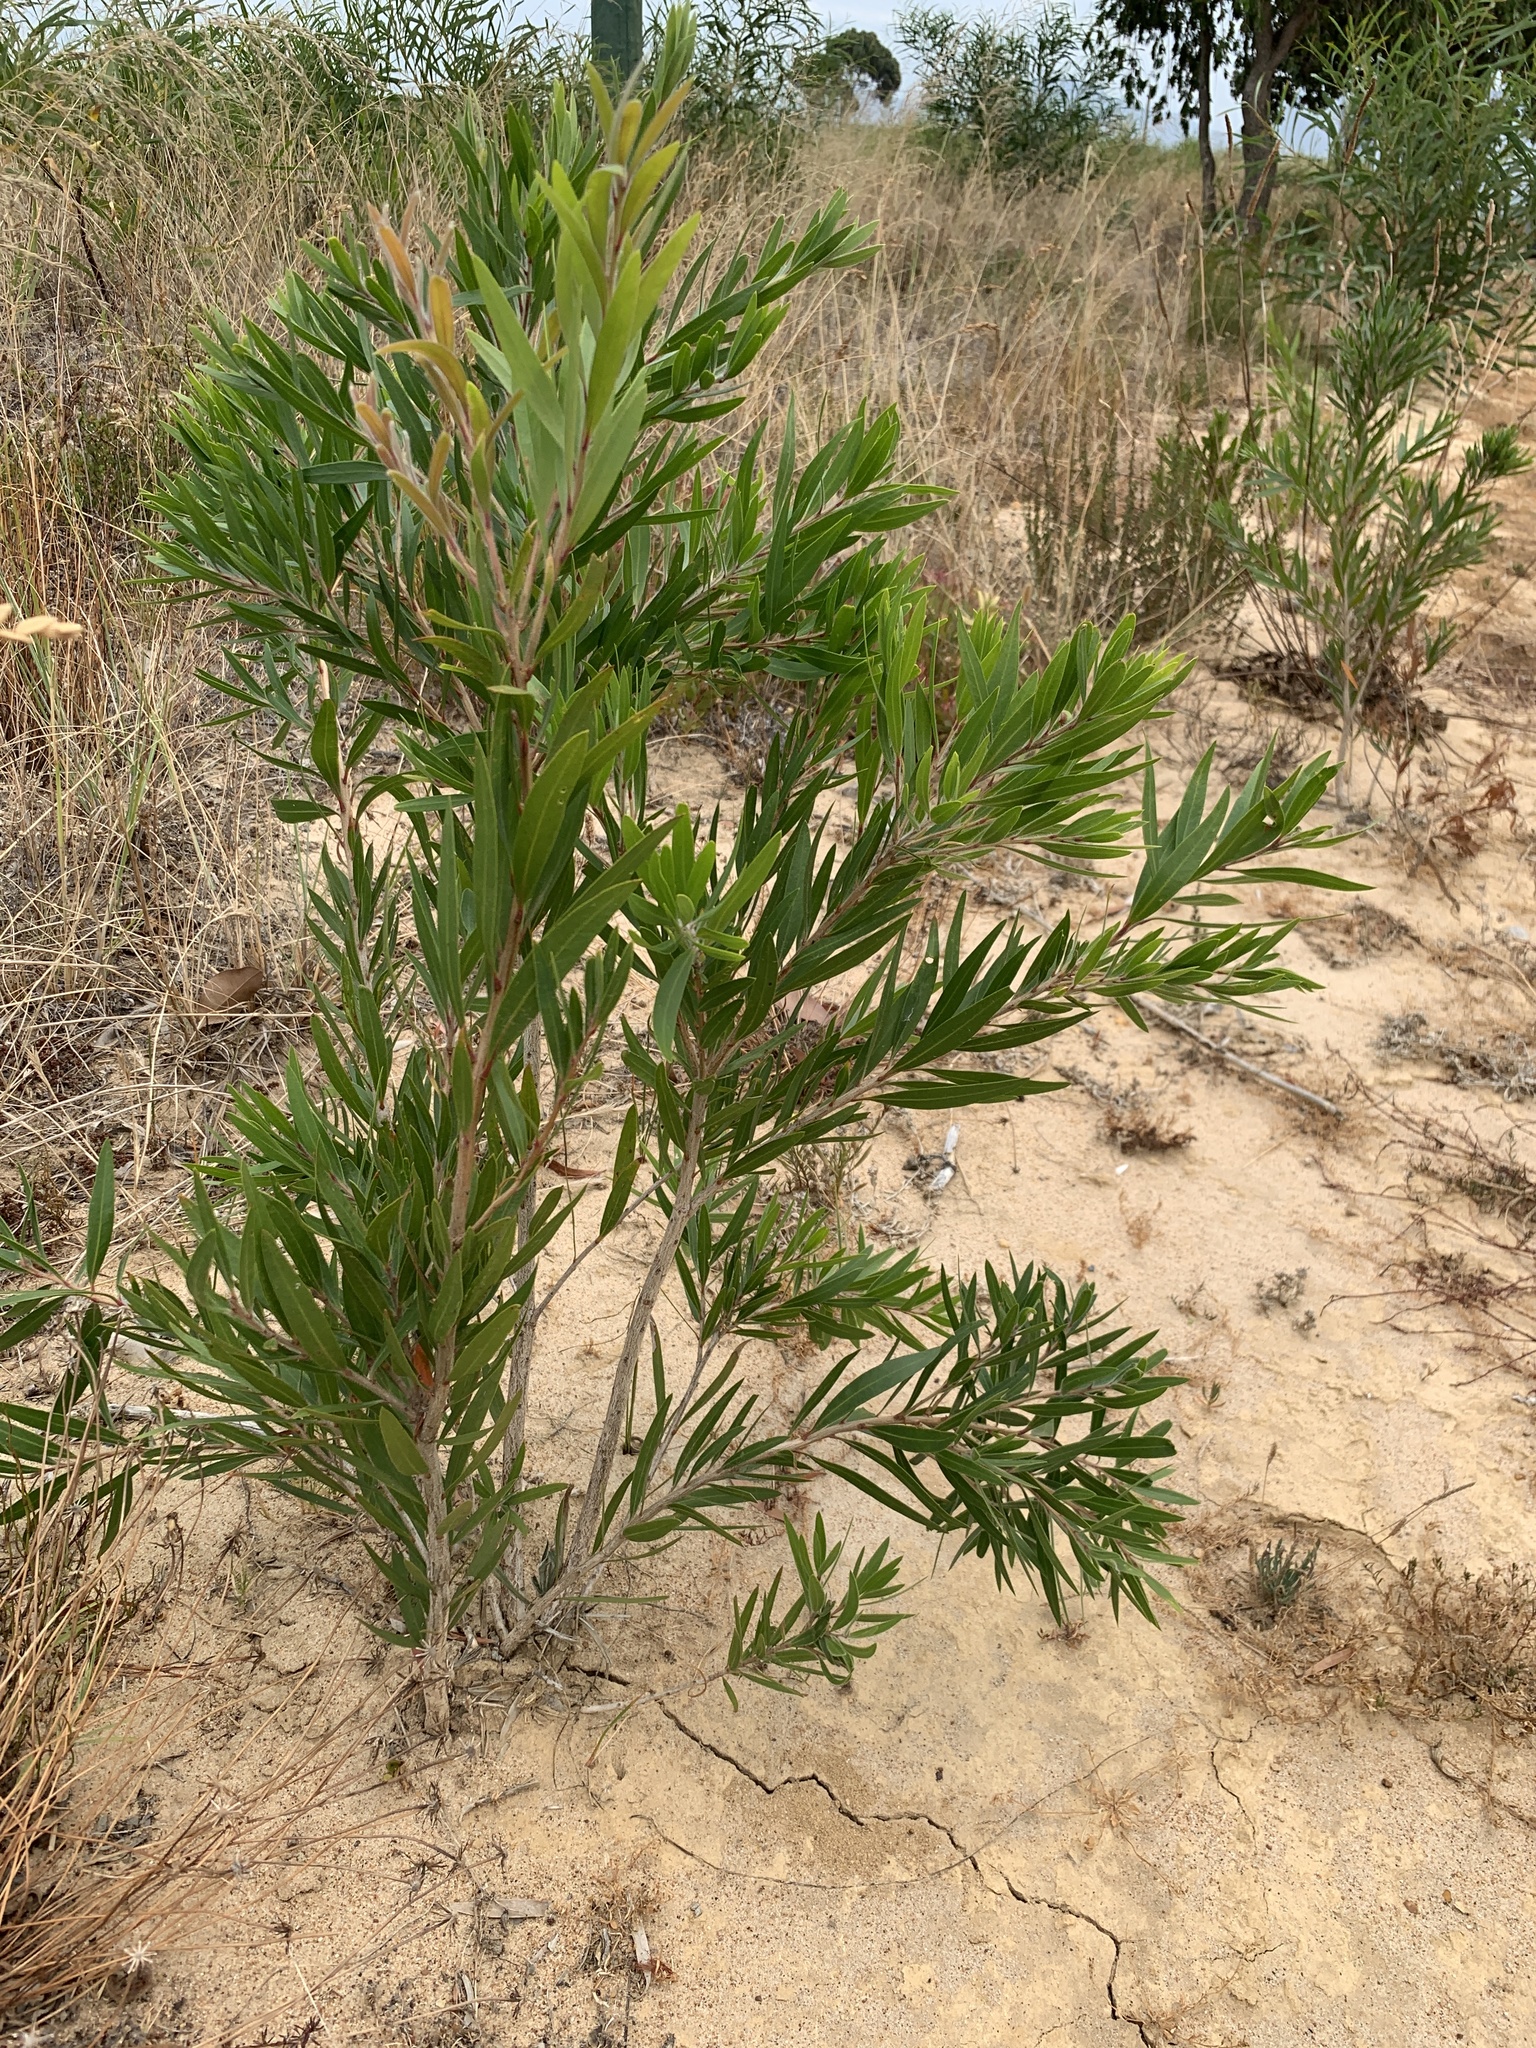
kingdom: Plantae
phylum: Tracheophyta
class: Magnoliopsida
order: Myrtales
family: Myrtaceae
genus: Callistemon
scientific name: Callistemon viminalis
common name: Drooping bottlebrush
